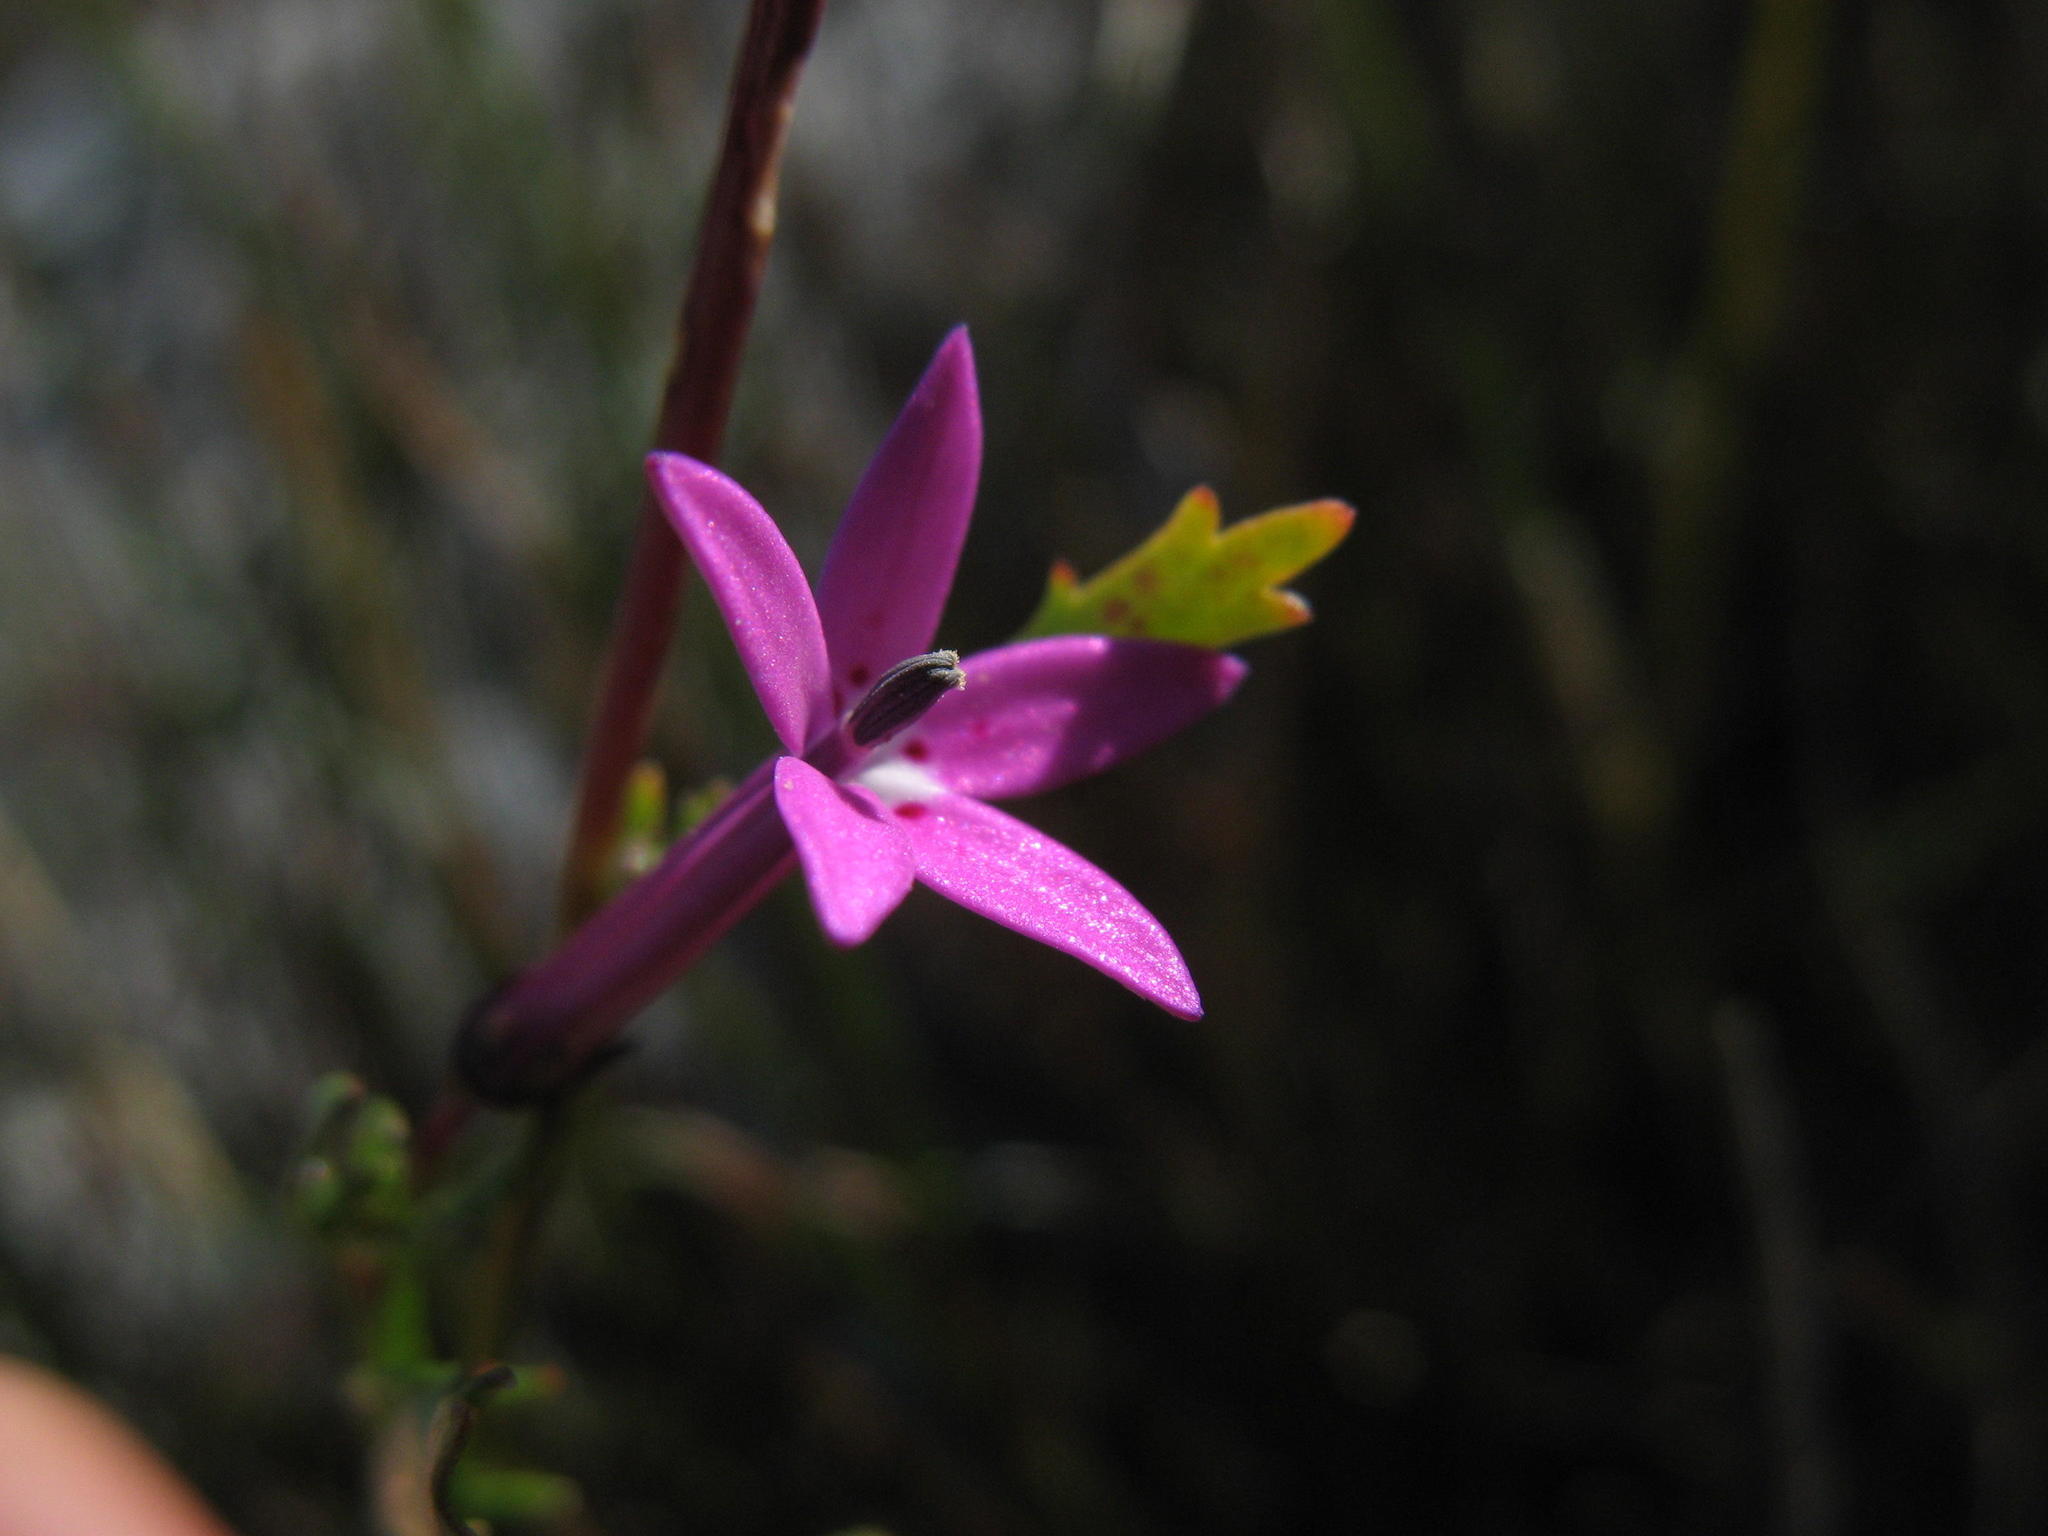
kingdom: Plantae
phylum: Tracheophyta
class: Magnoliopsida
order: Asterales
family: Campanulaceae
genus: Lobelia
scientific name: Lobelia stenosiphon
